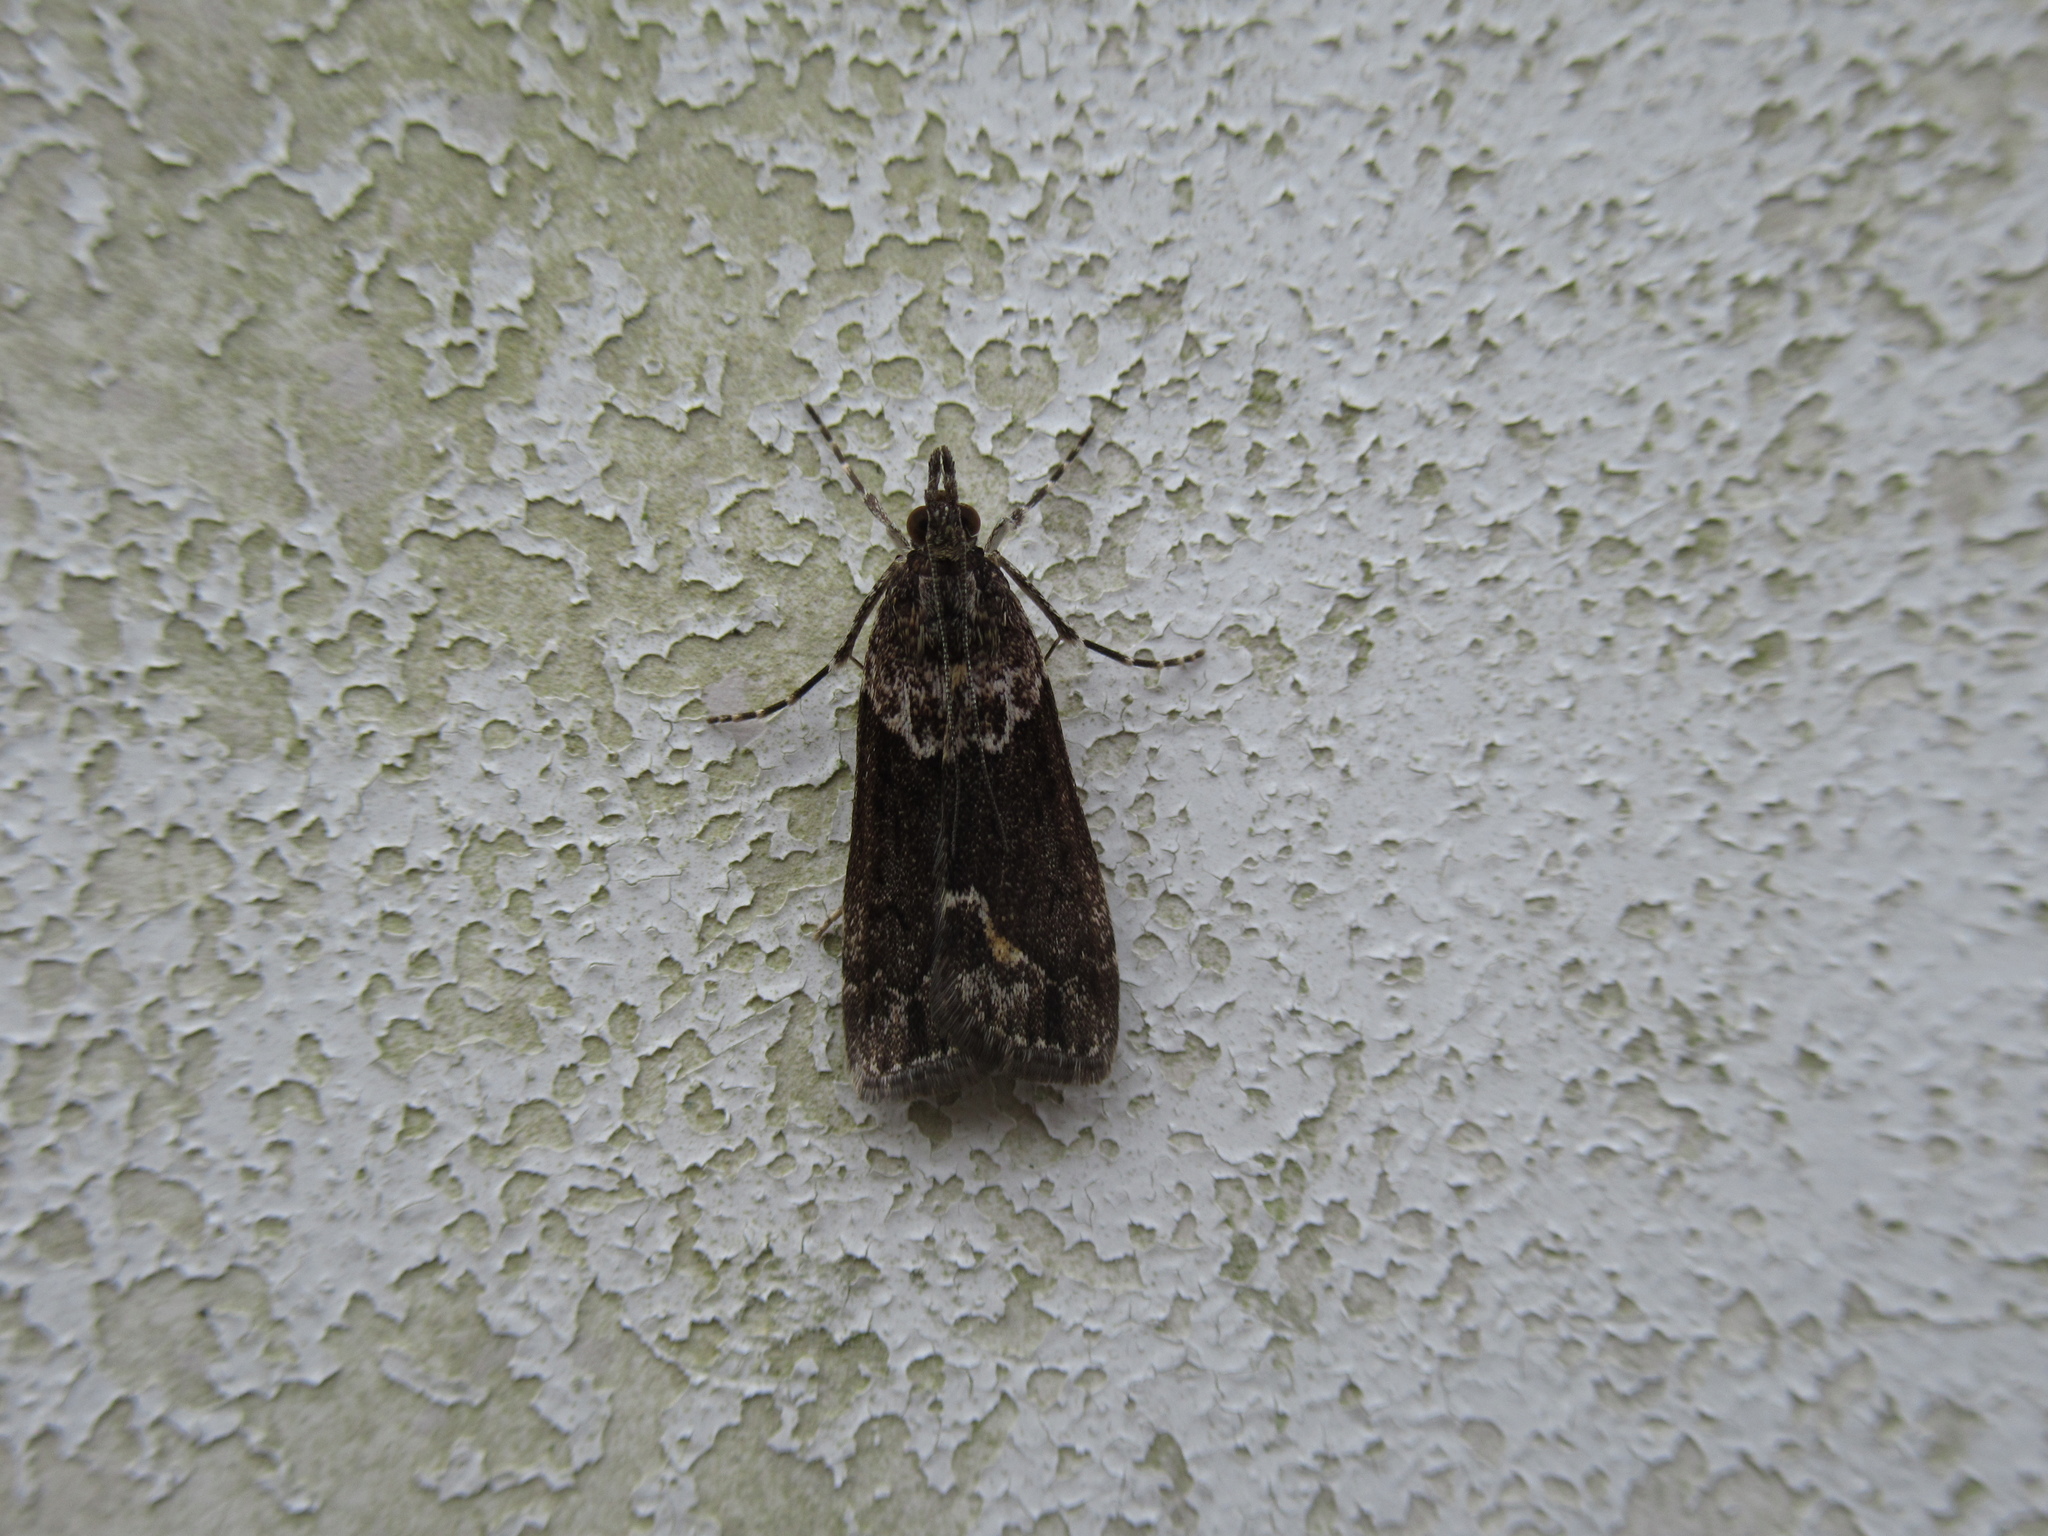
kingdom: Animalia
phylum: Arthropoda
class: Insecta
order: Lepidoptera
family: Crambidae
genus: Eudonia
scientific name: Eudonia submarginalis
